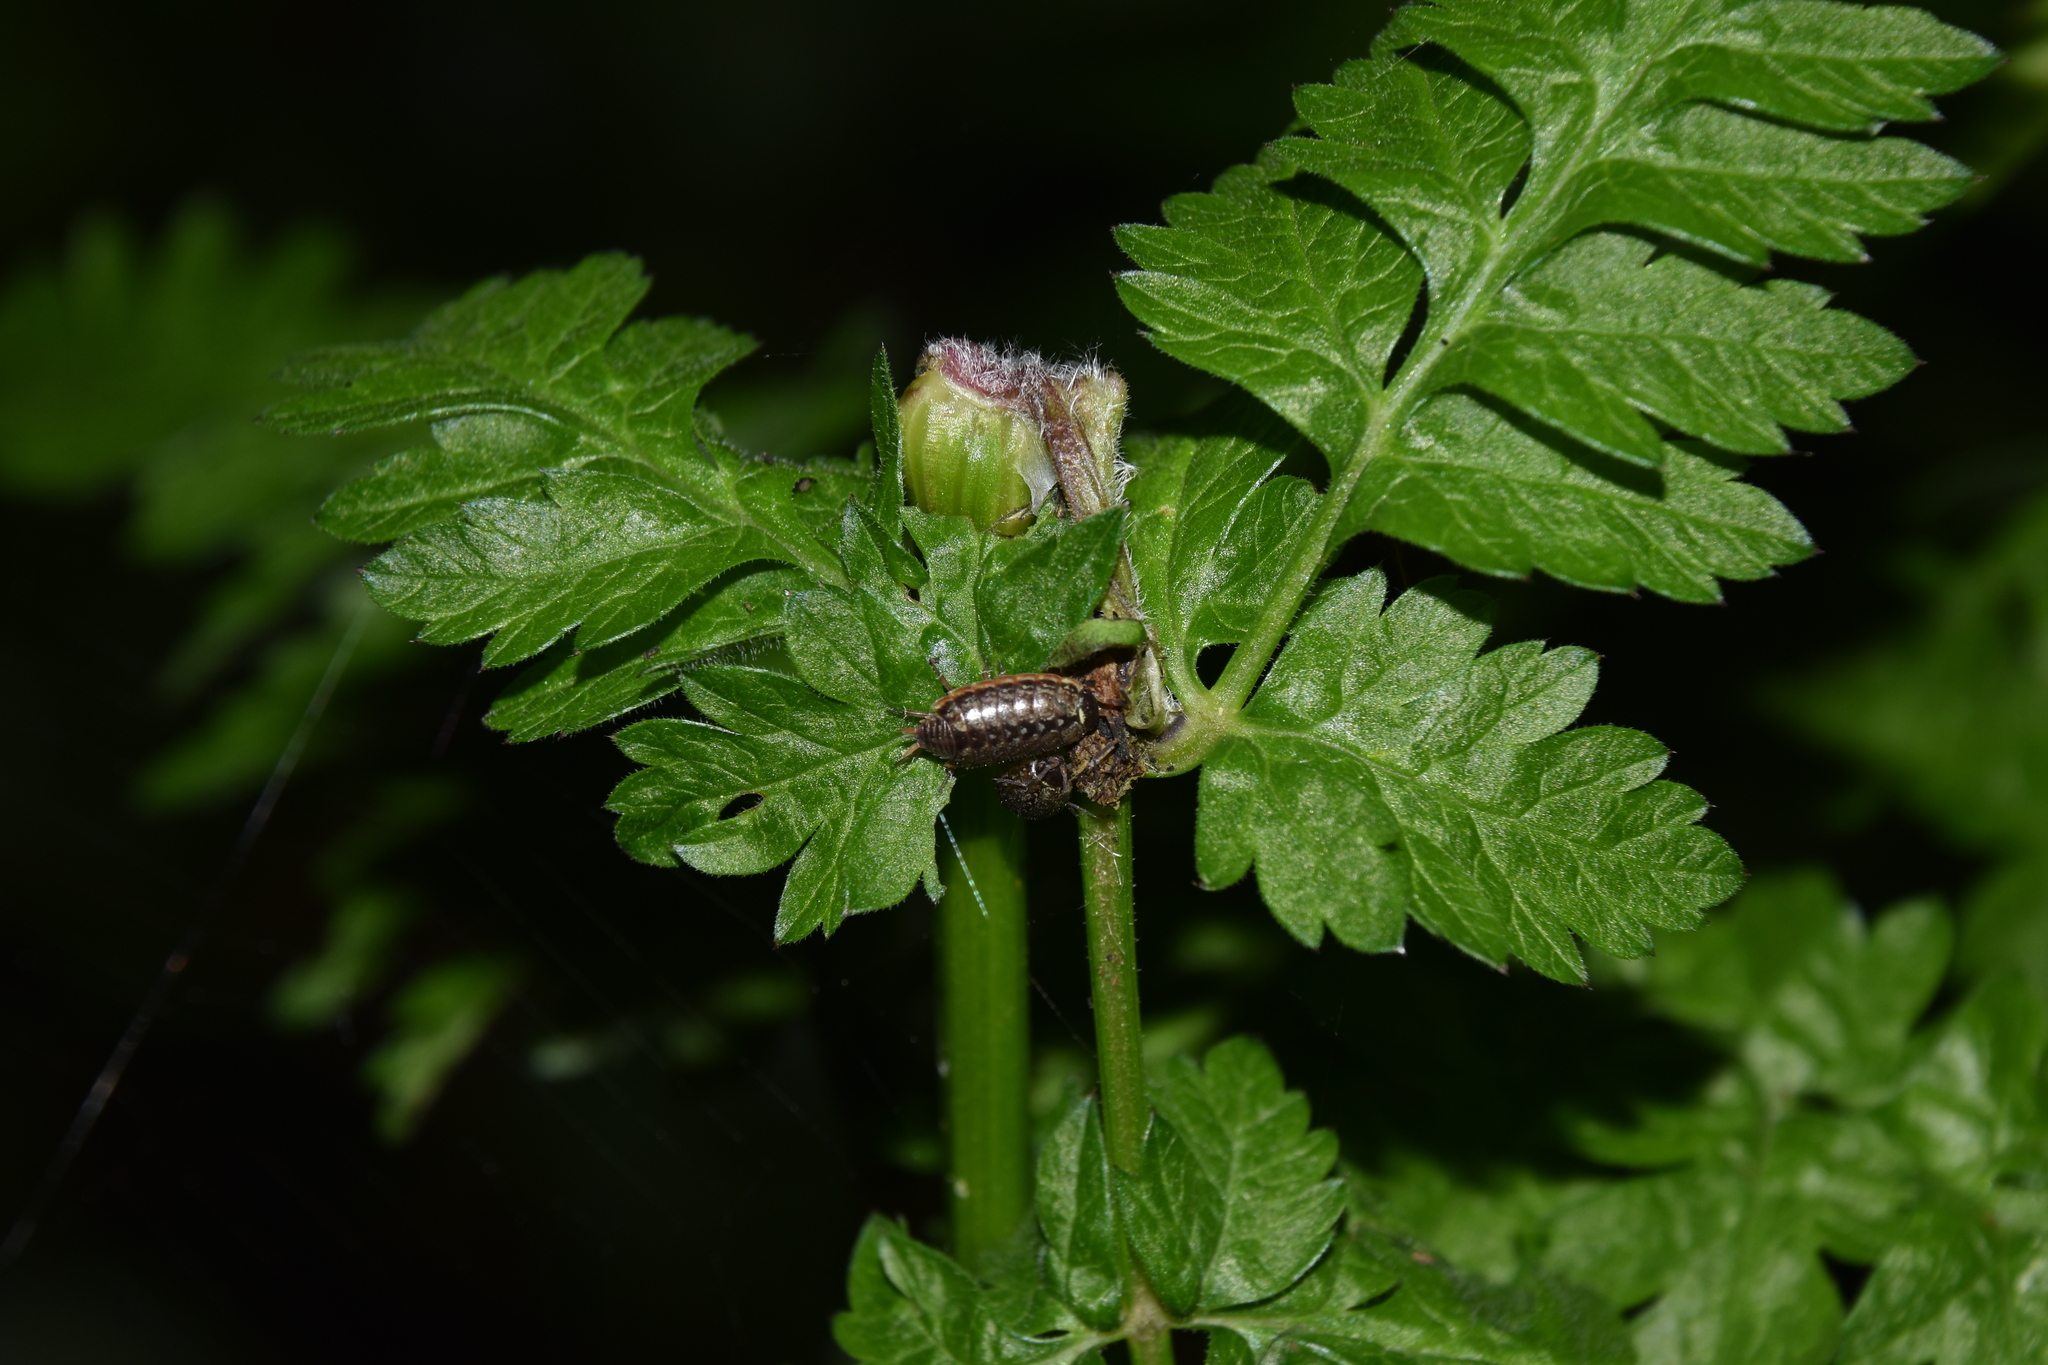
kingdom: Animalia
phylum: Arthropoda
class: Malacostraca
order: Isopoda
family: Philosciidae
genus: Philoscia
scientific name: Philoscia muscorum
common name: Common striped woodlouse
